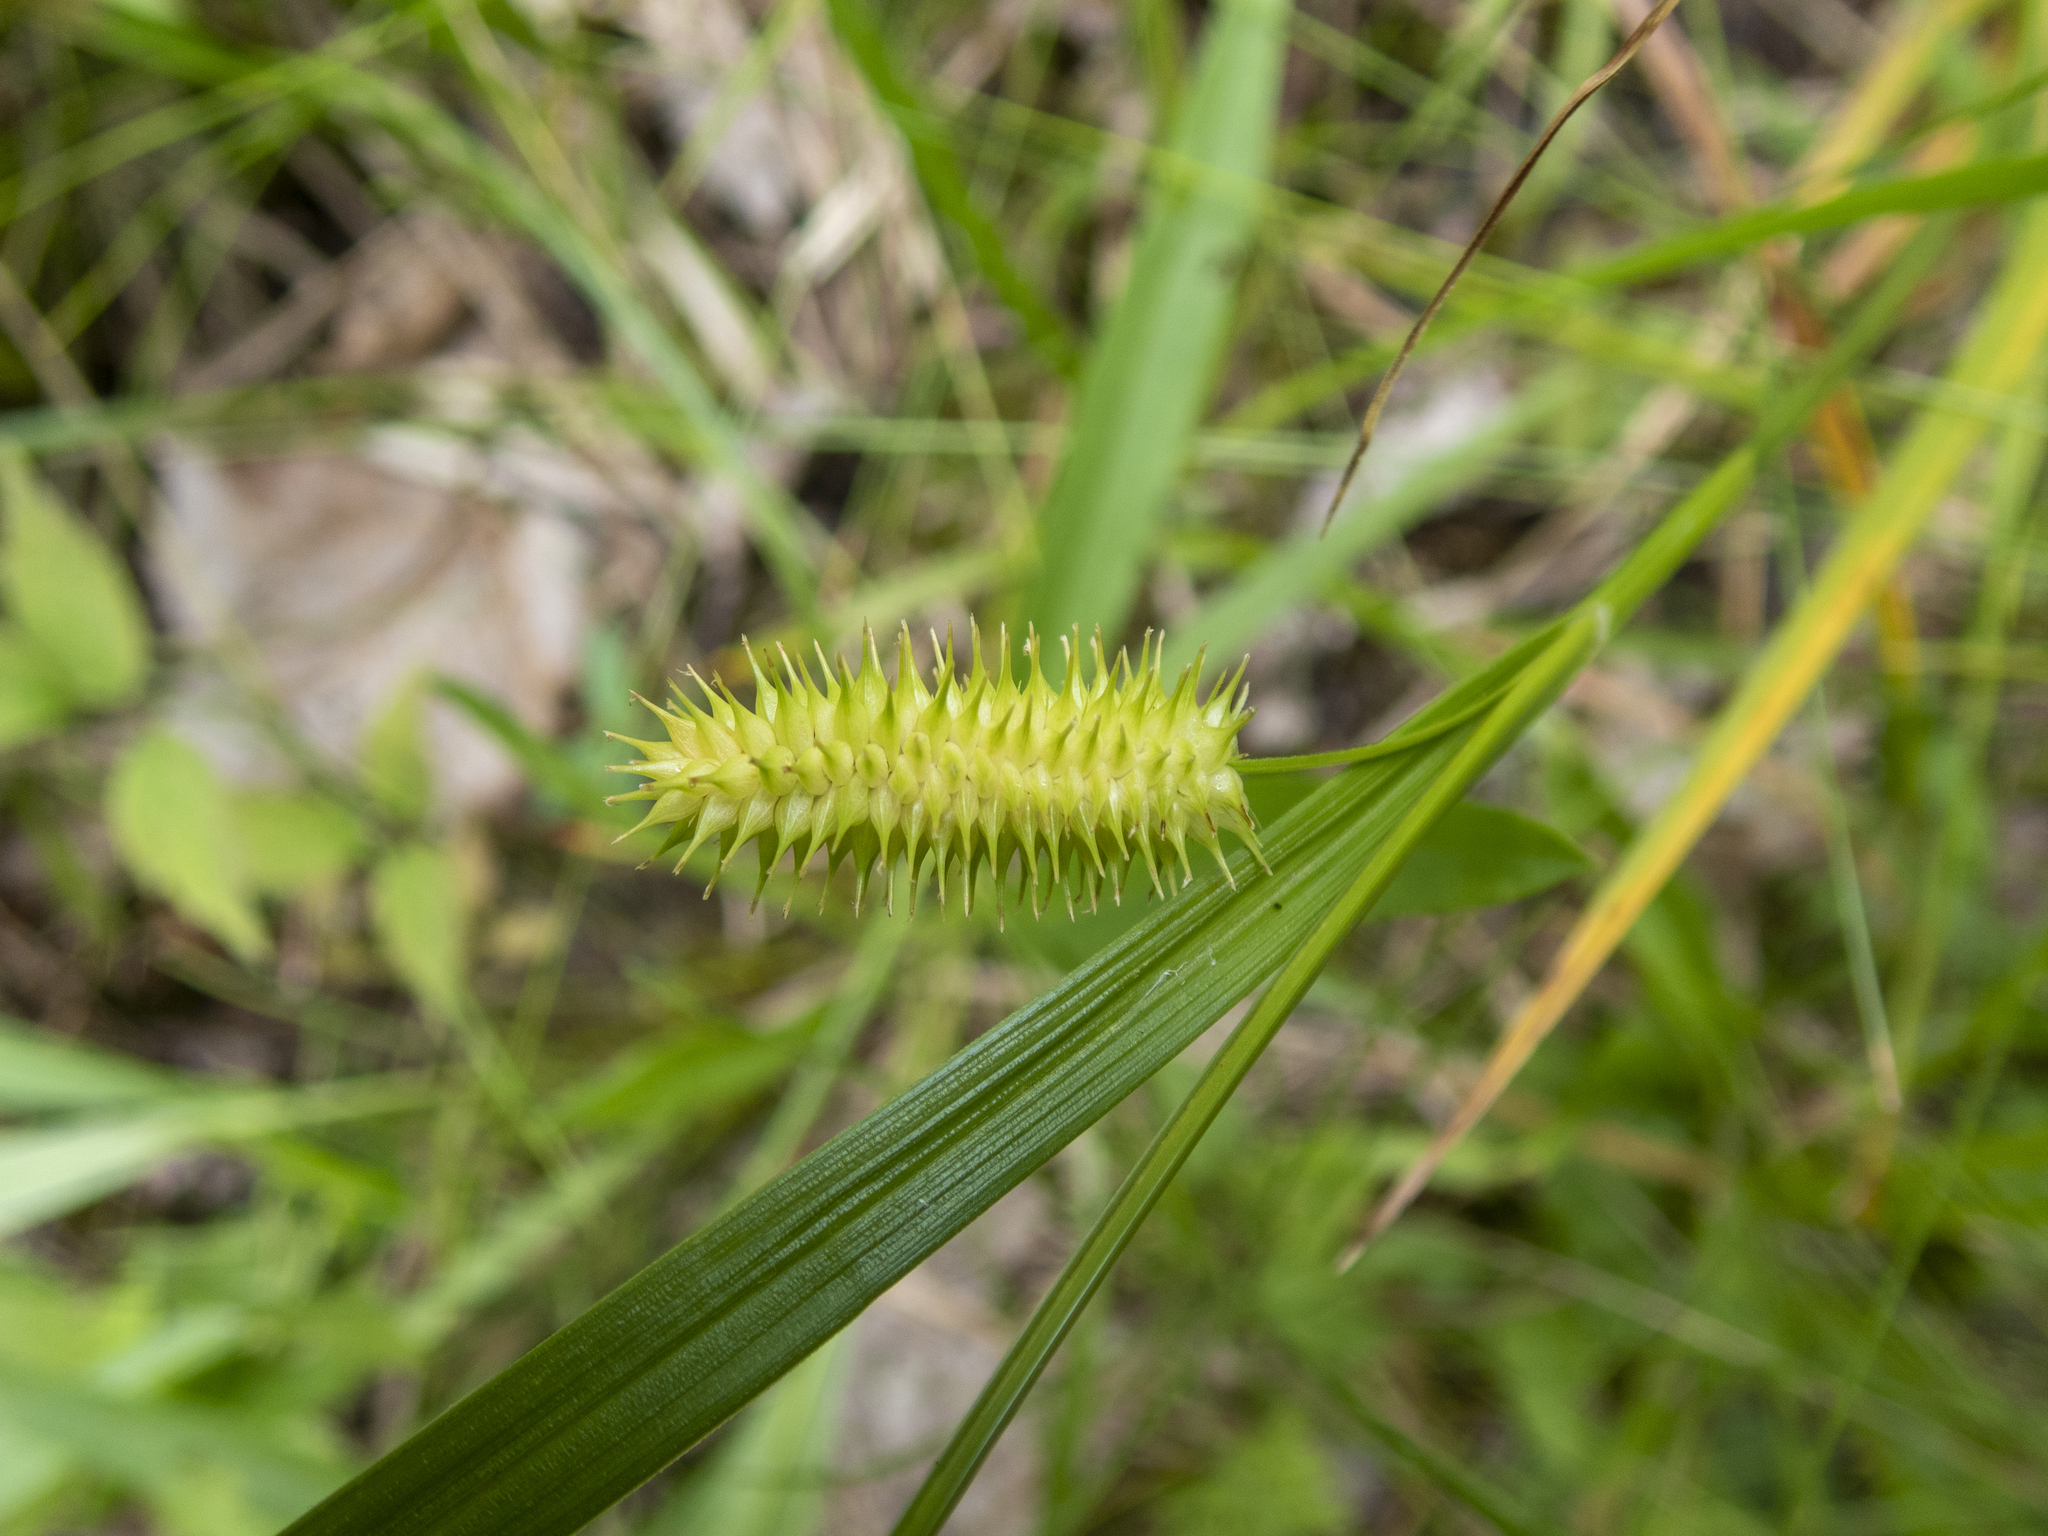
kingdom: Plantae
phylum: Tracheophyta
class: Liliopsida
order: Poales
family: Cyperaceae
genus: Carex
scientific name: Carex hystericina
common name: Bottlebrush sedge
